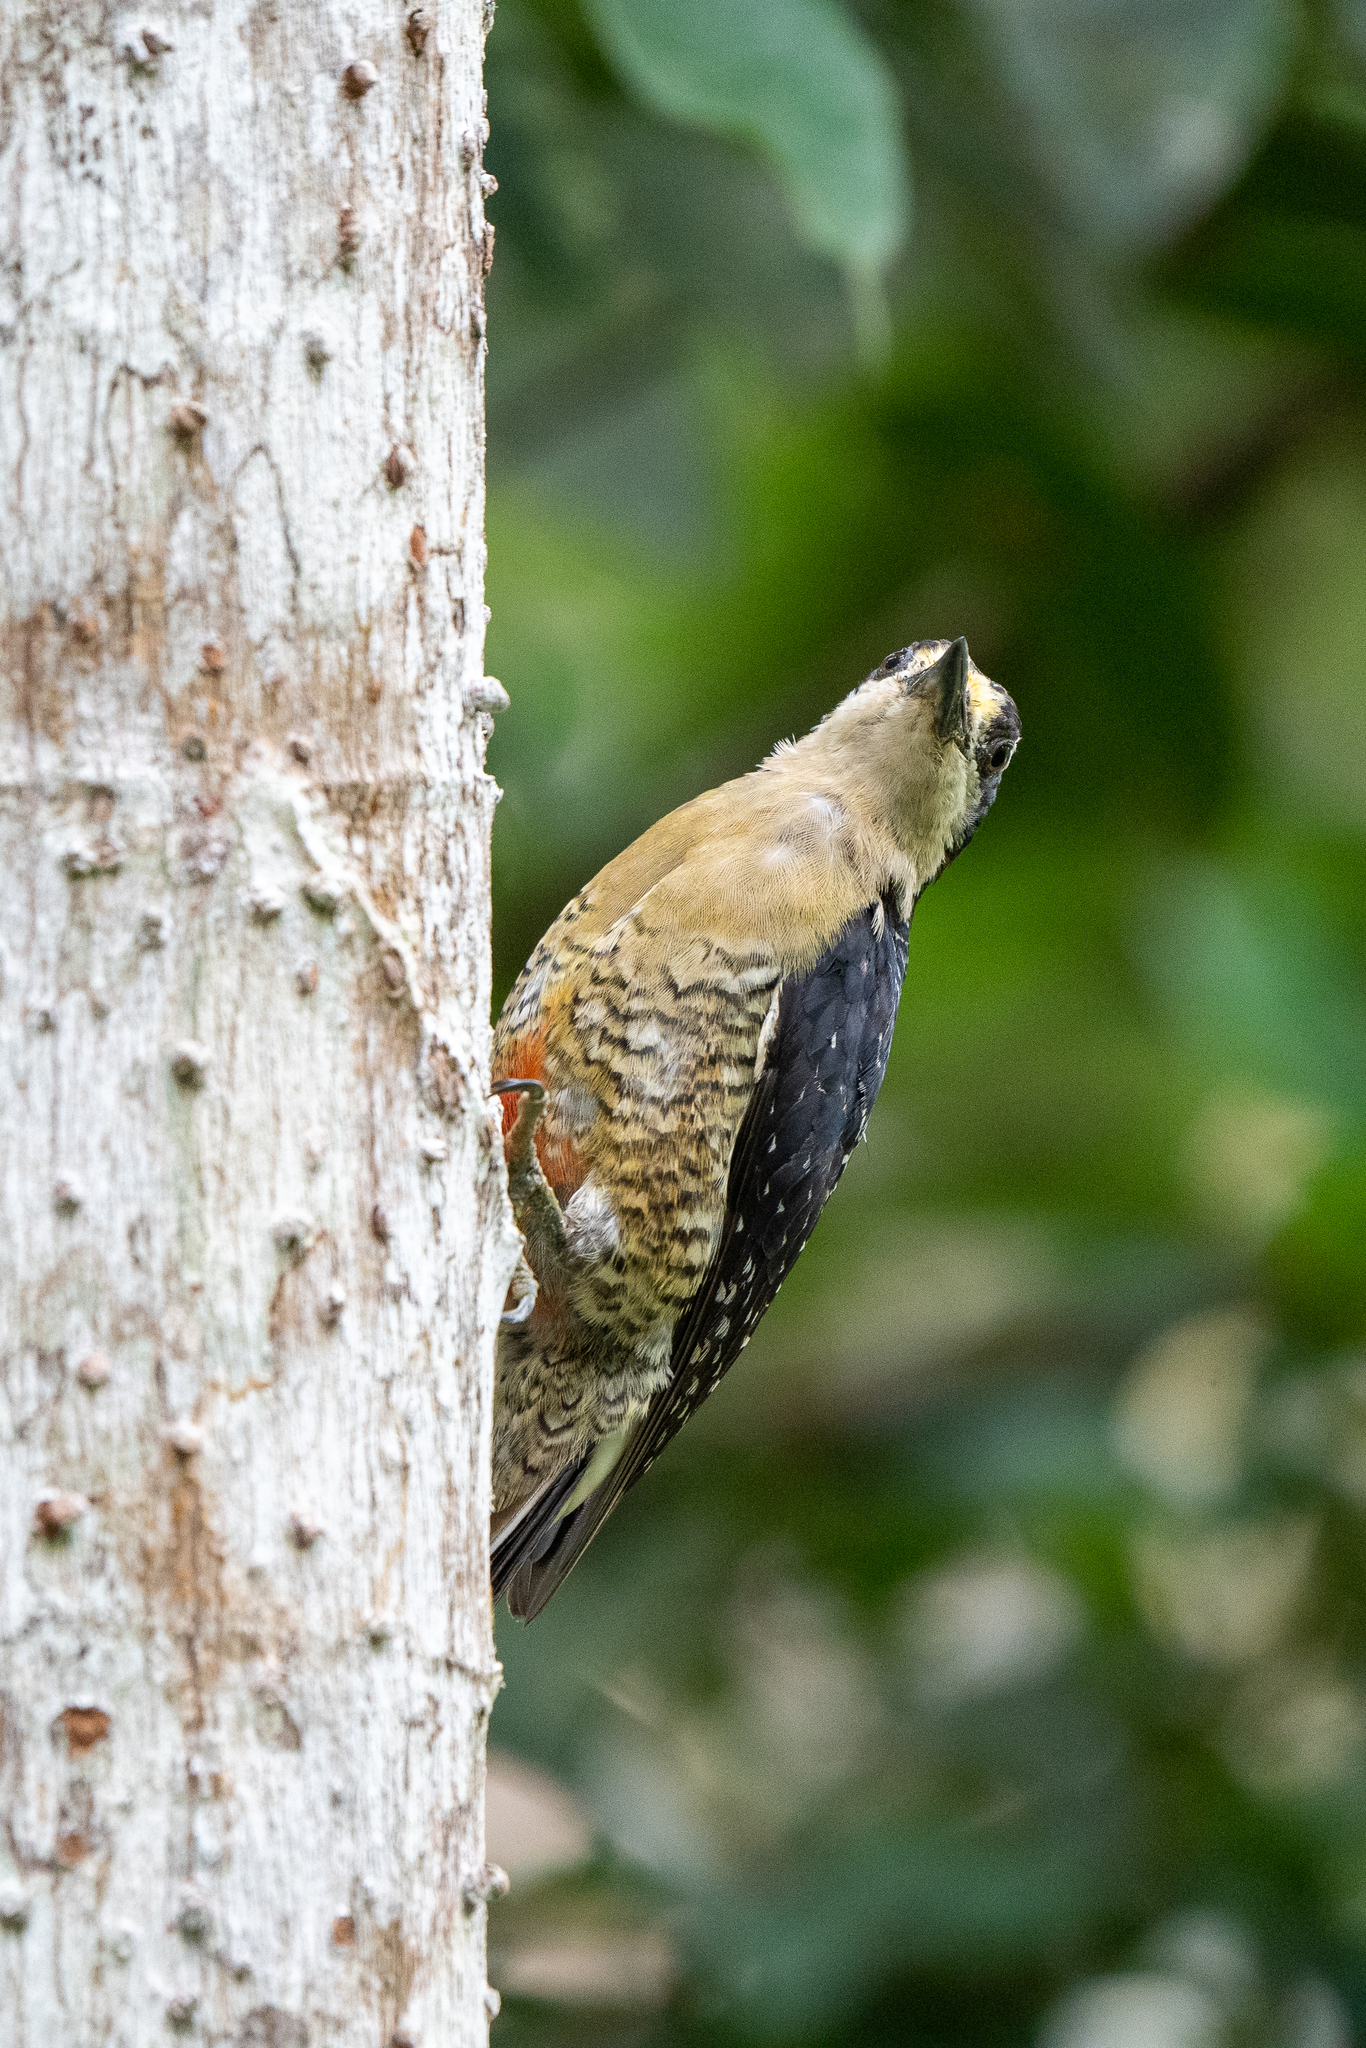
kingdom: Animalia
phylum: Chordata
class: Aves
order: Piciformes
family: Picidae
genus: Melanerpes
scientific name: Melanerpes pucherani
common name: Black-cheeked woodpecker
